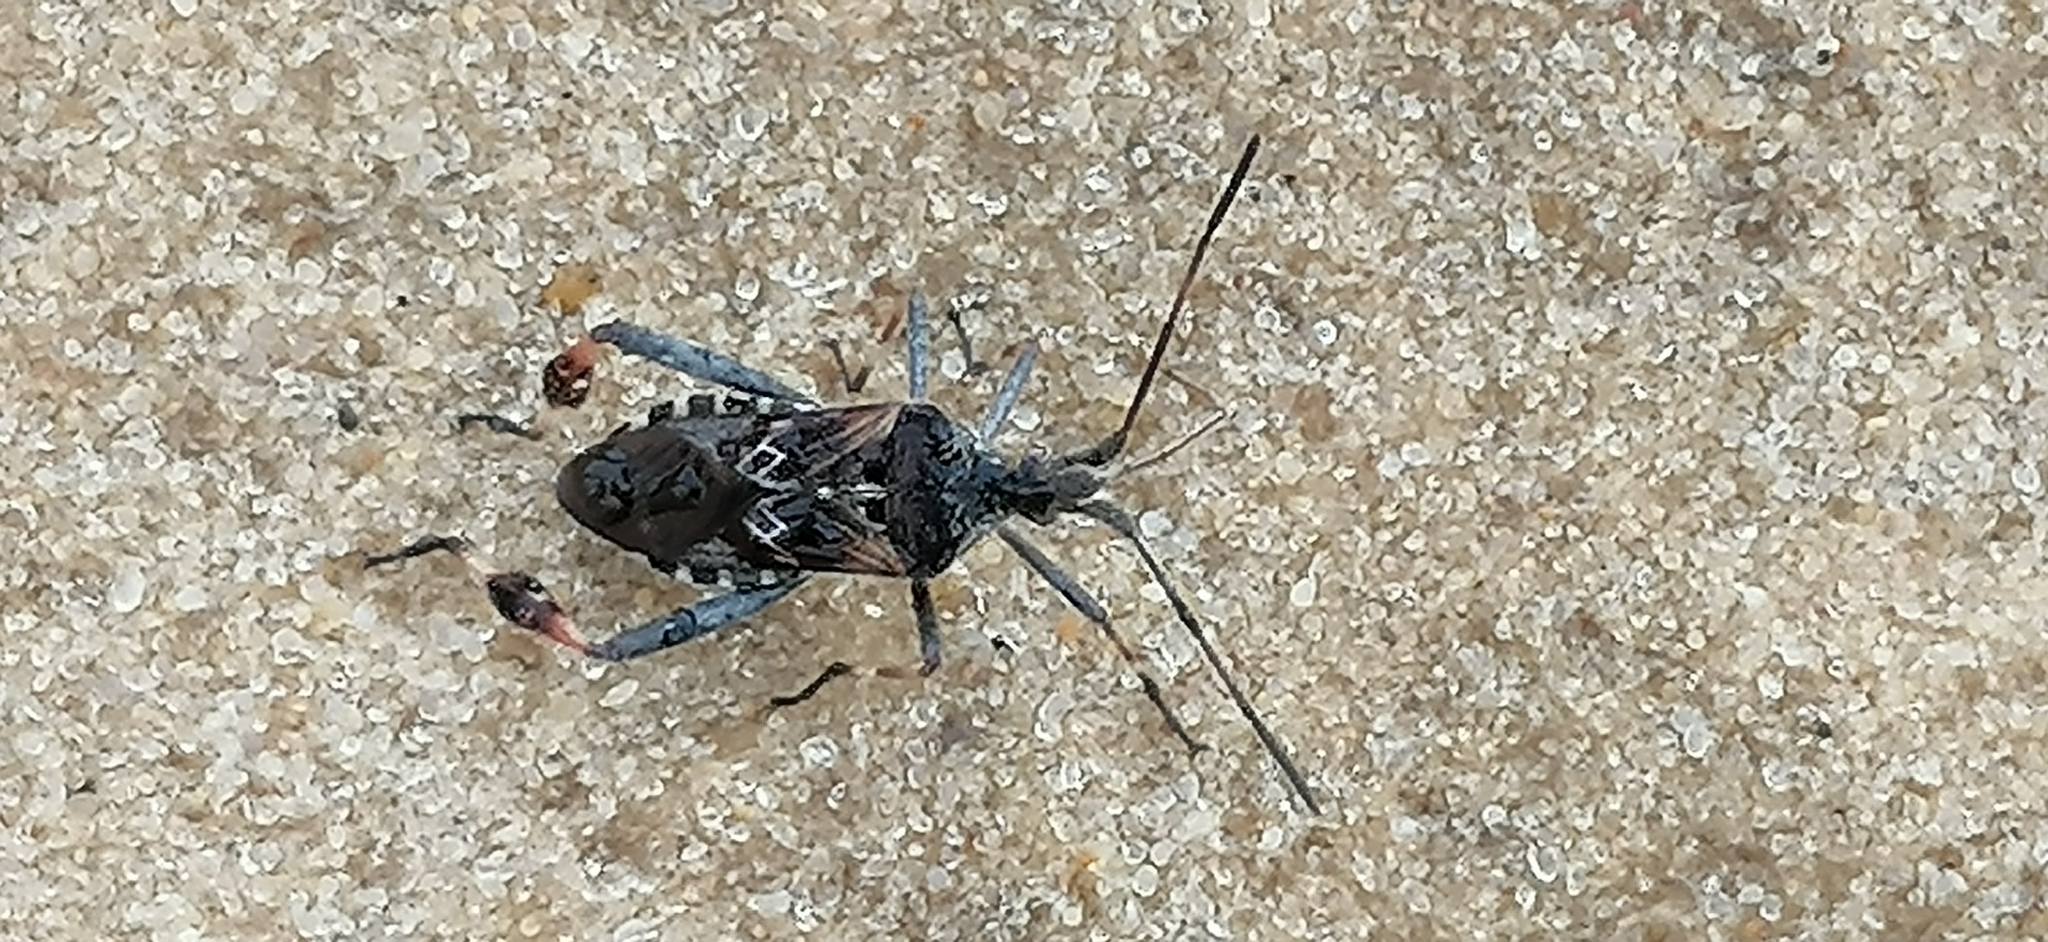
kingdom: Animalia
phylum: Arthropoda
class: Insecta
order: Hemiptera
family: Coreidae
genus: Leptoglossus
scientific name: Leptoglossus occidentalis
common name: Western conifer-seed bug
